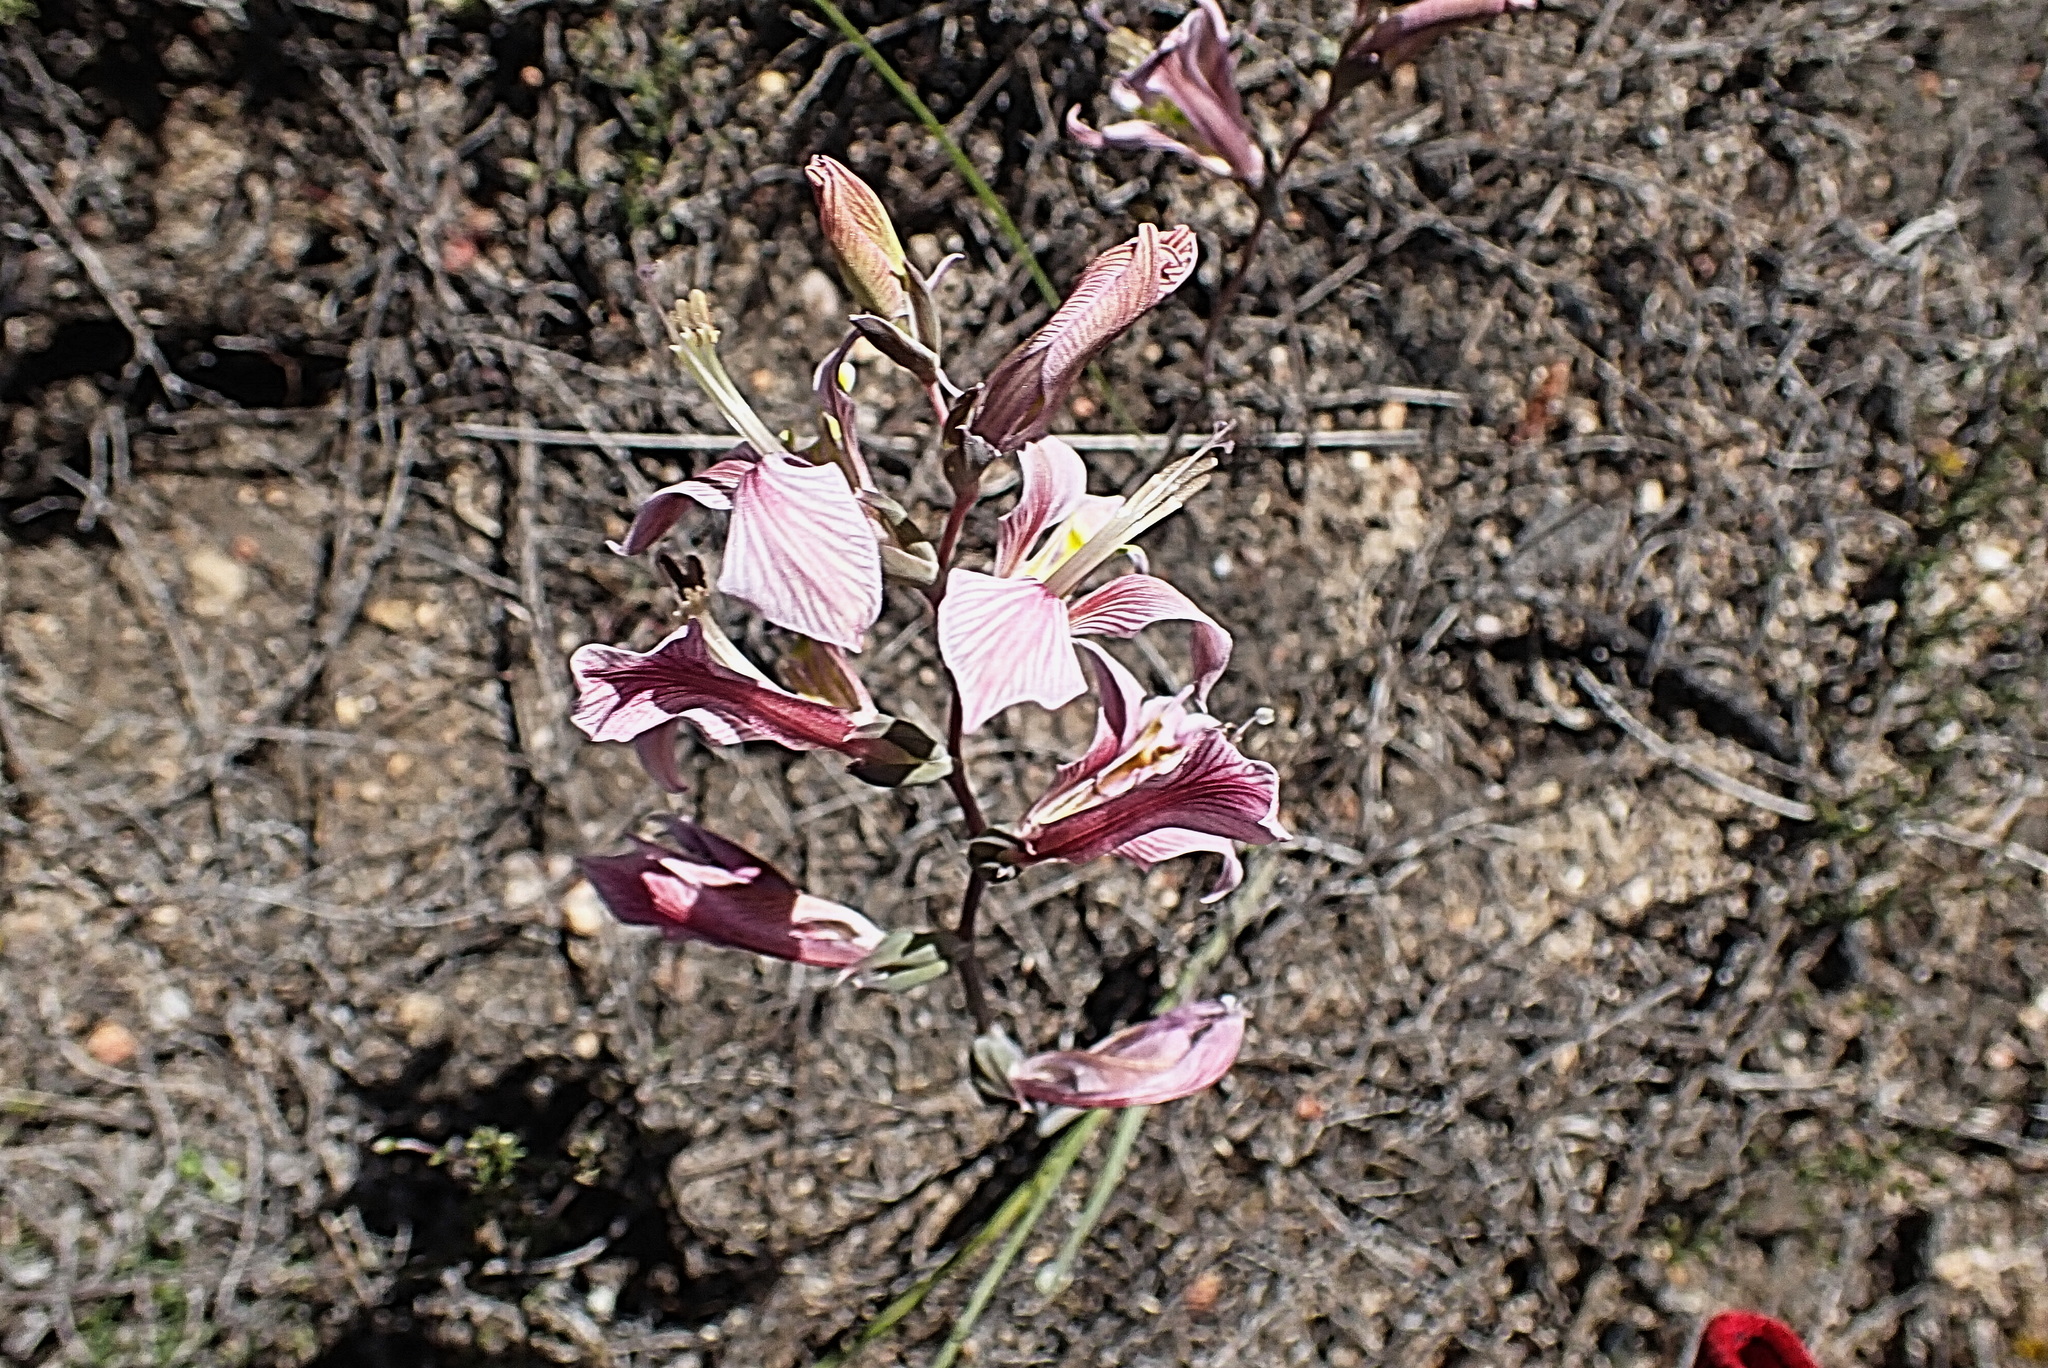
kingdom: Plantae
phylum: Tracheophyta
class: Liliopsida
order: Asparagales
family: Iridaceae
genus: Gladiolus
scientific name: Gladiolus virescens
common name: Yellow kalkoentjie
